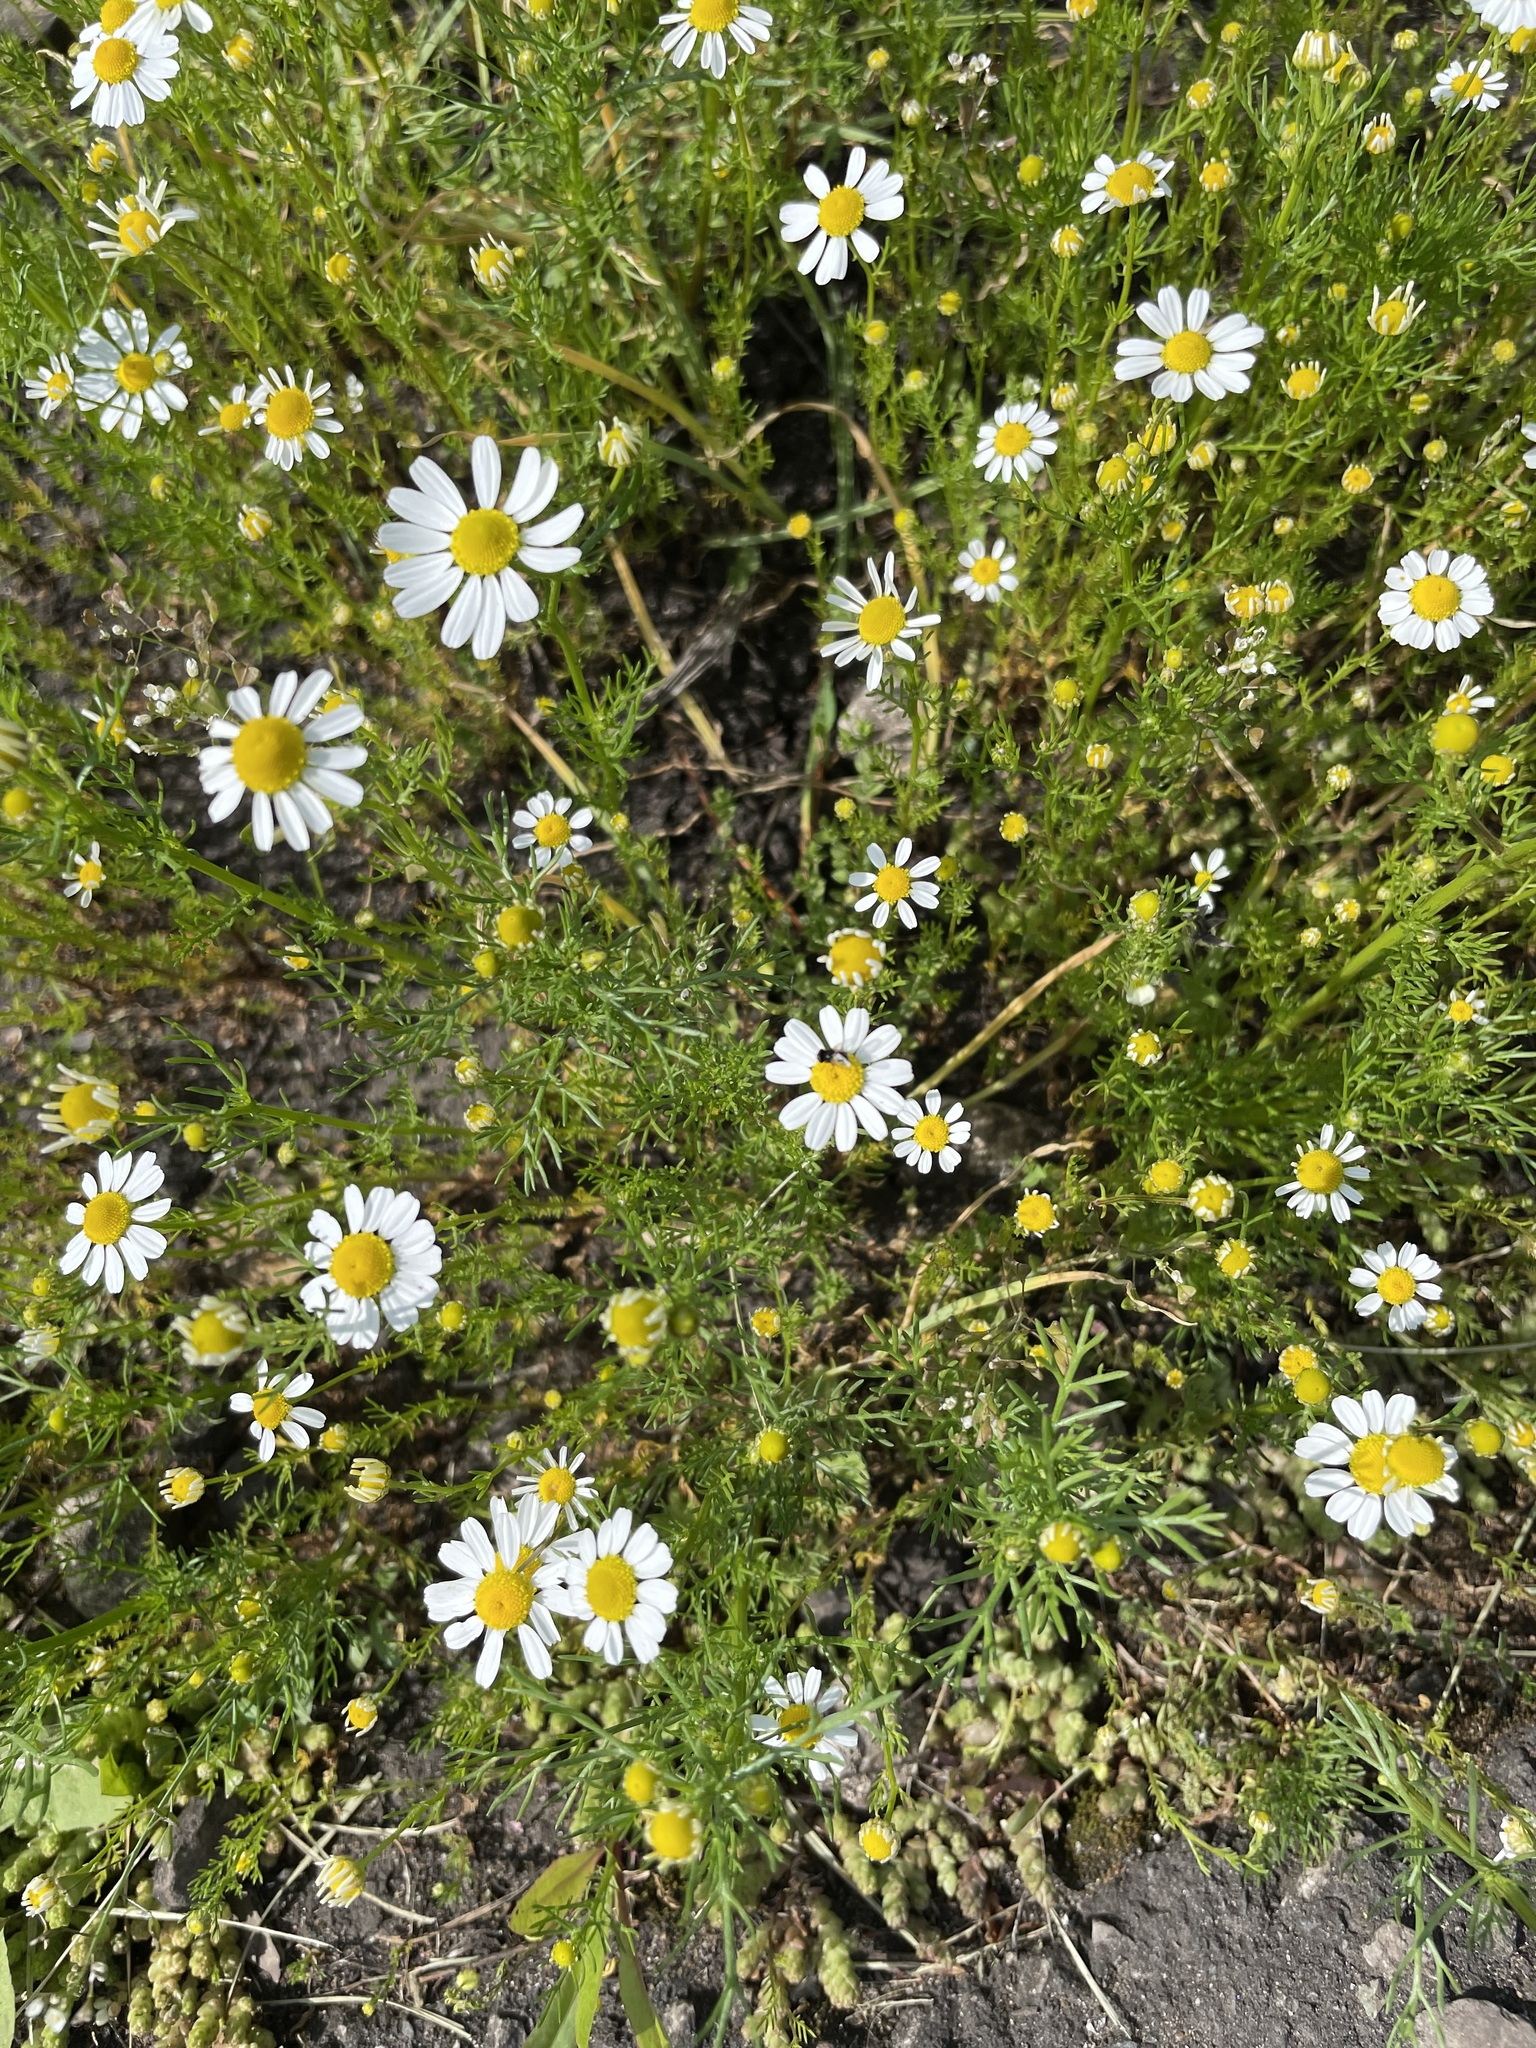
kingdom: Plantae
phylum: Tracheophyta
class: Magnoliopsida
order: Asterales
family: Asteraceae
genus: Matricaria
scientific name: Matricaria chamomilla
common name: Scented mayweed
